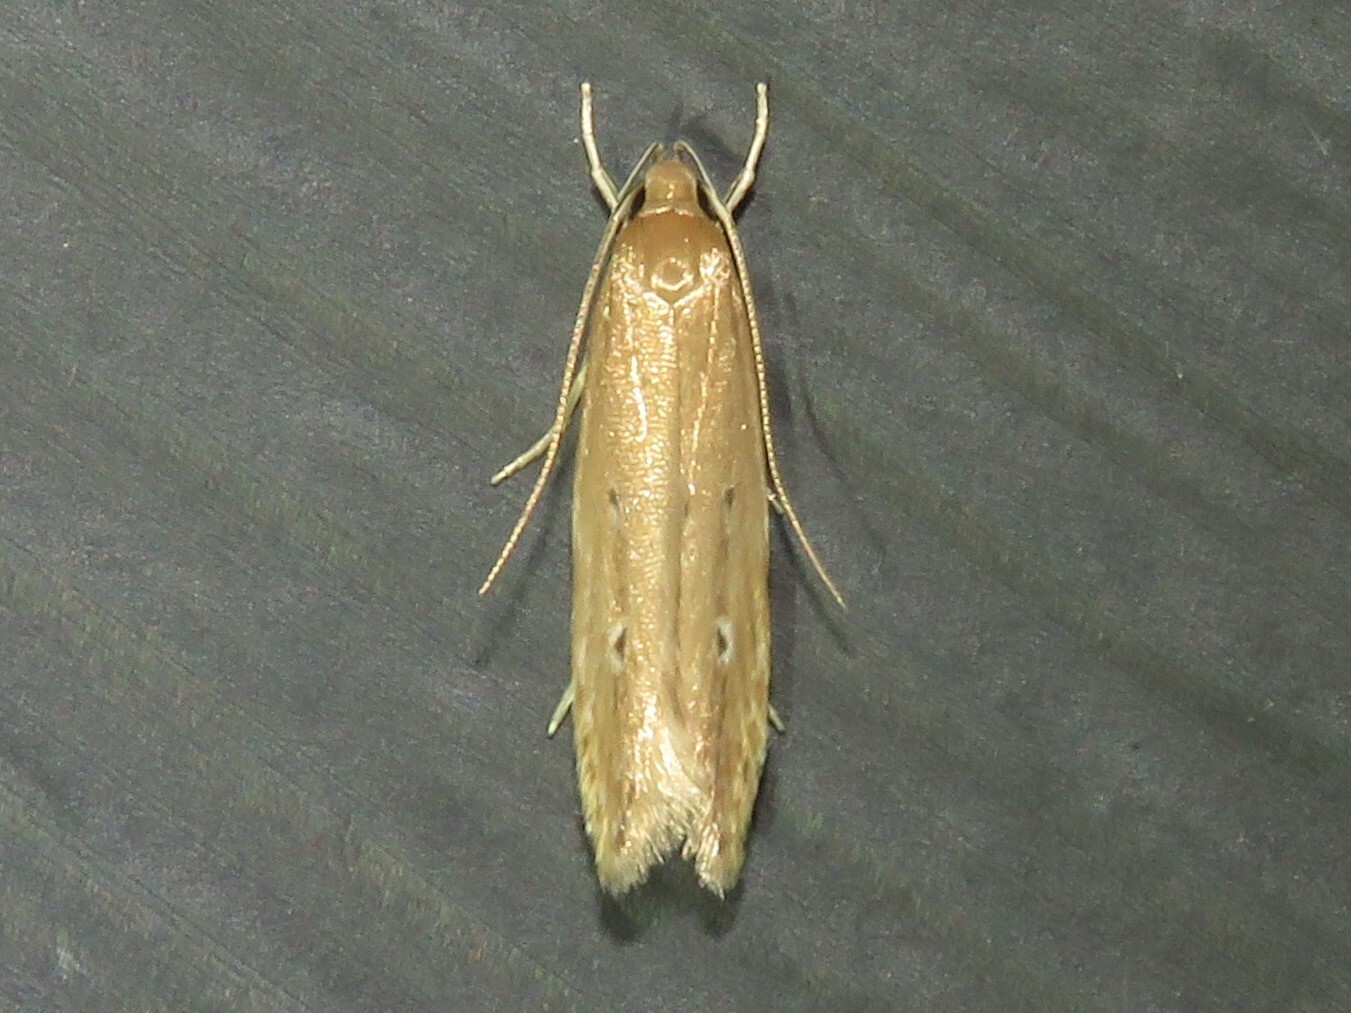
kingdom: Animalia
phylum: Arthropoda
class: Insecta
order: Lepidoptera
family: Cosmopterigidae
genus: Limnaecia
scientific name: Limnaecia phragmitella
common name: Bulrush cosmet
